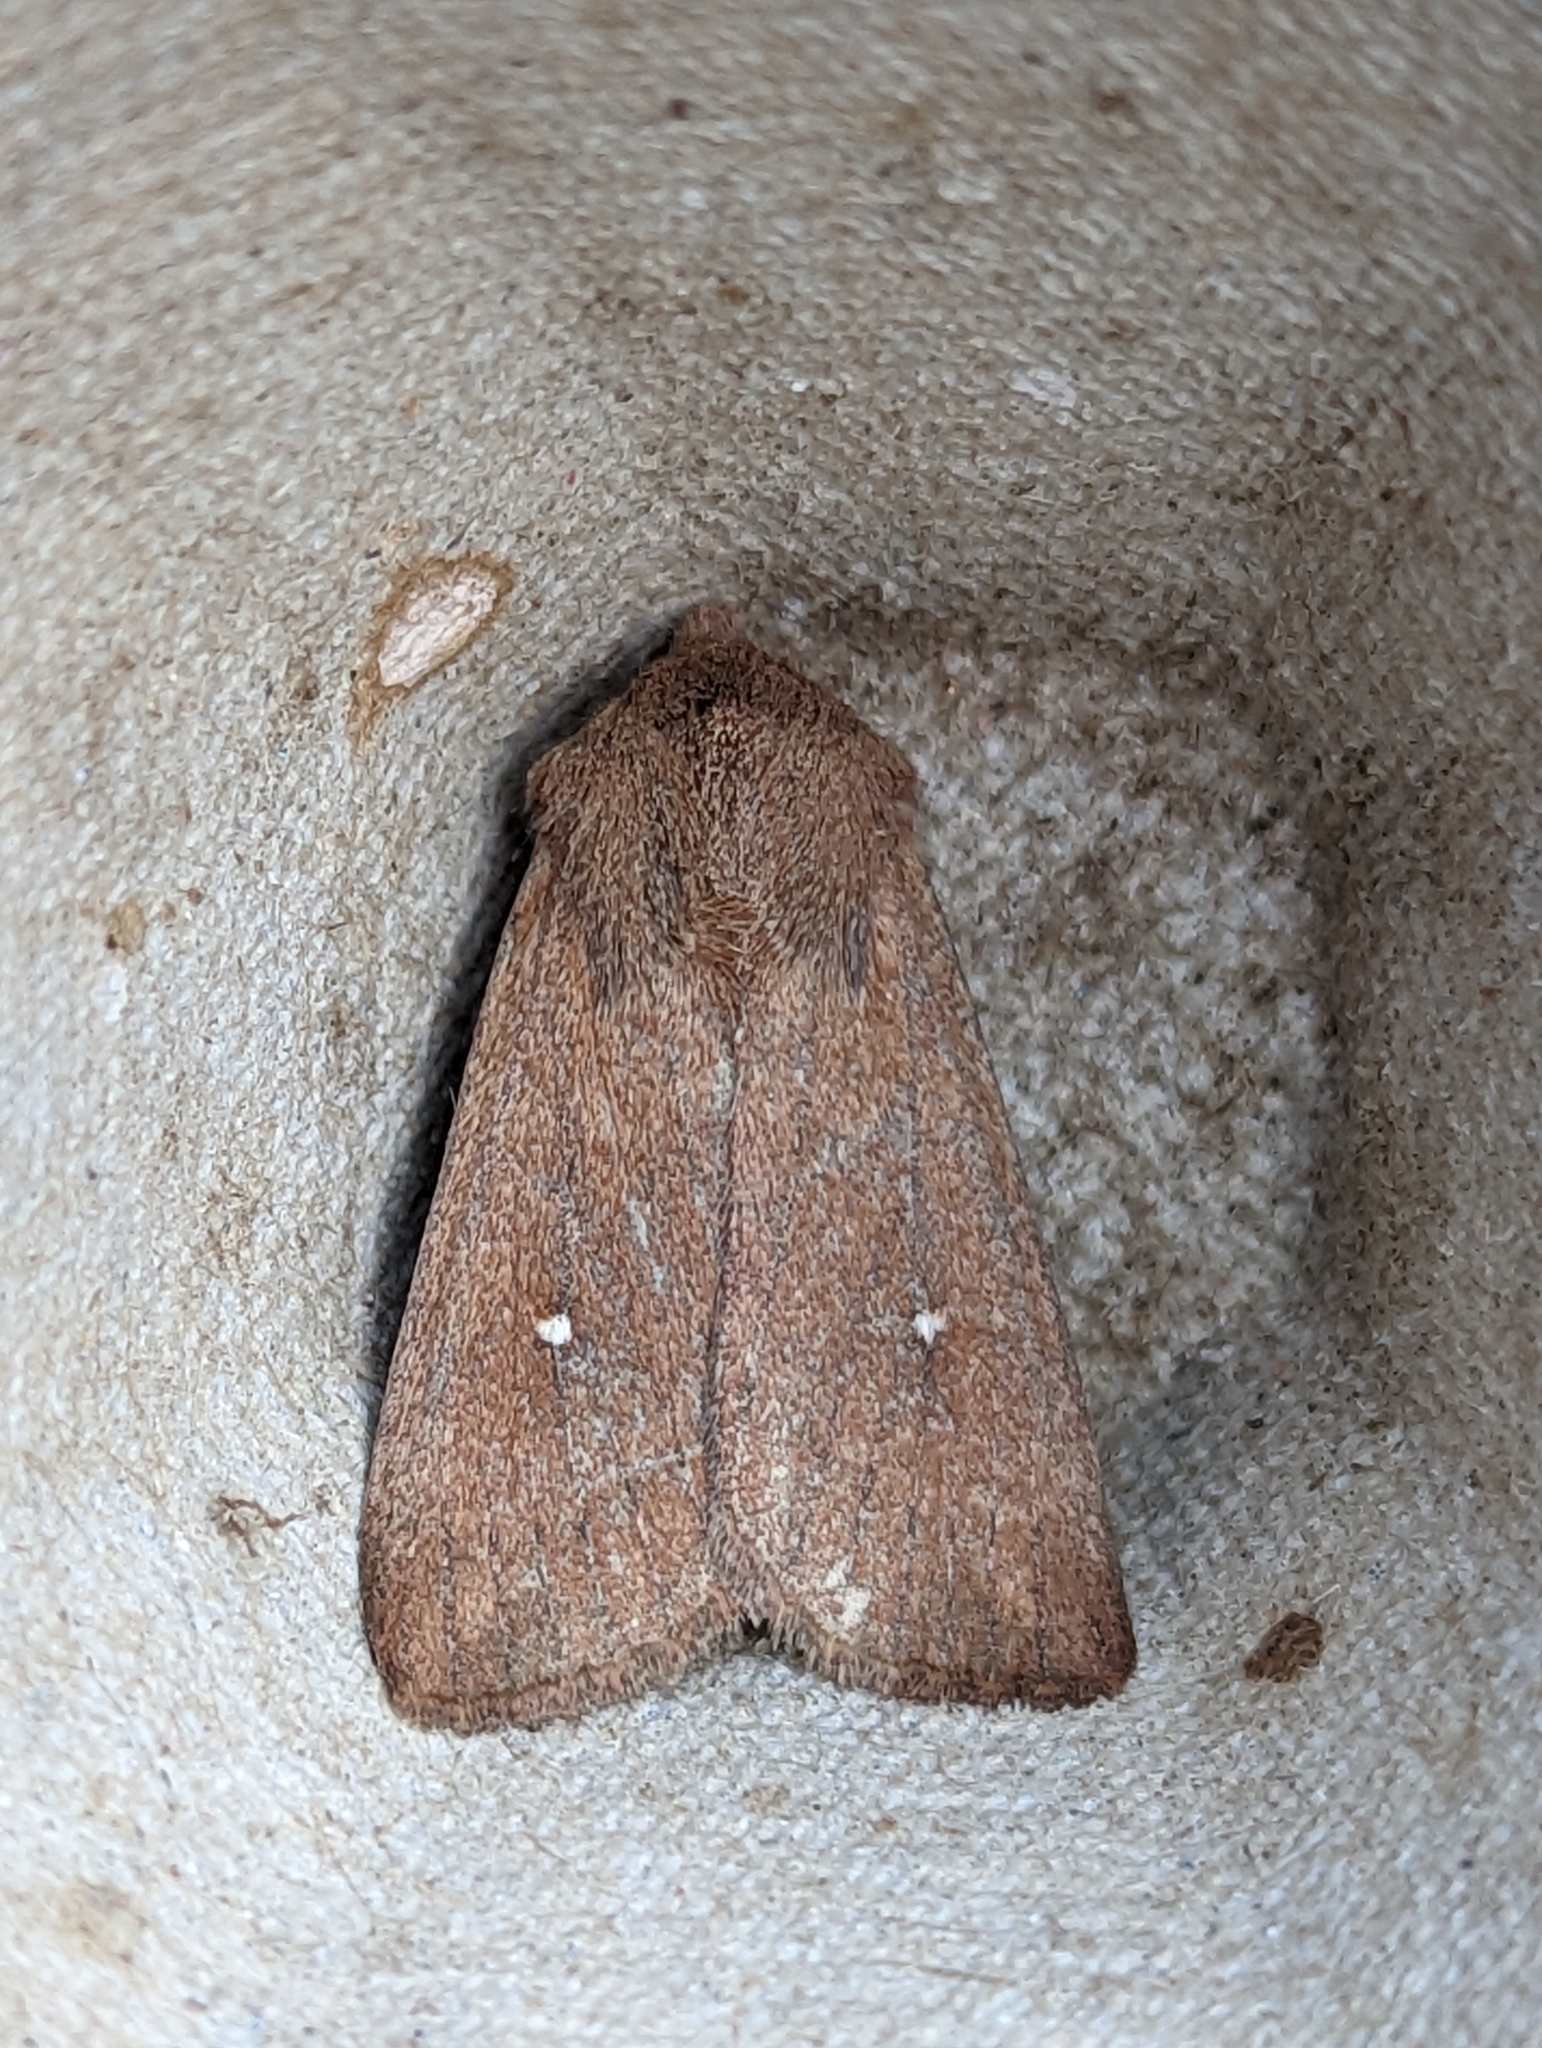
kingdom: Animalia
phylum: Arthropoda
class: Insecta
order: Lepidoptera
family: Noctuidae
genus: Mythimna
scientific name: Mythimna albipuncta
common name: White-point
